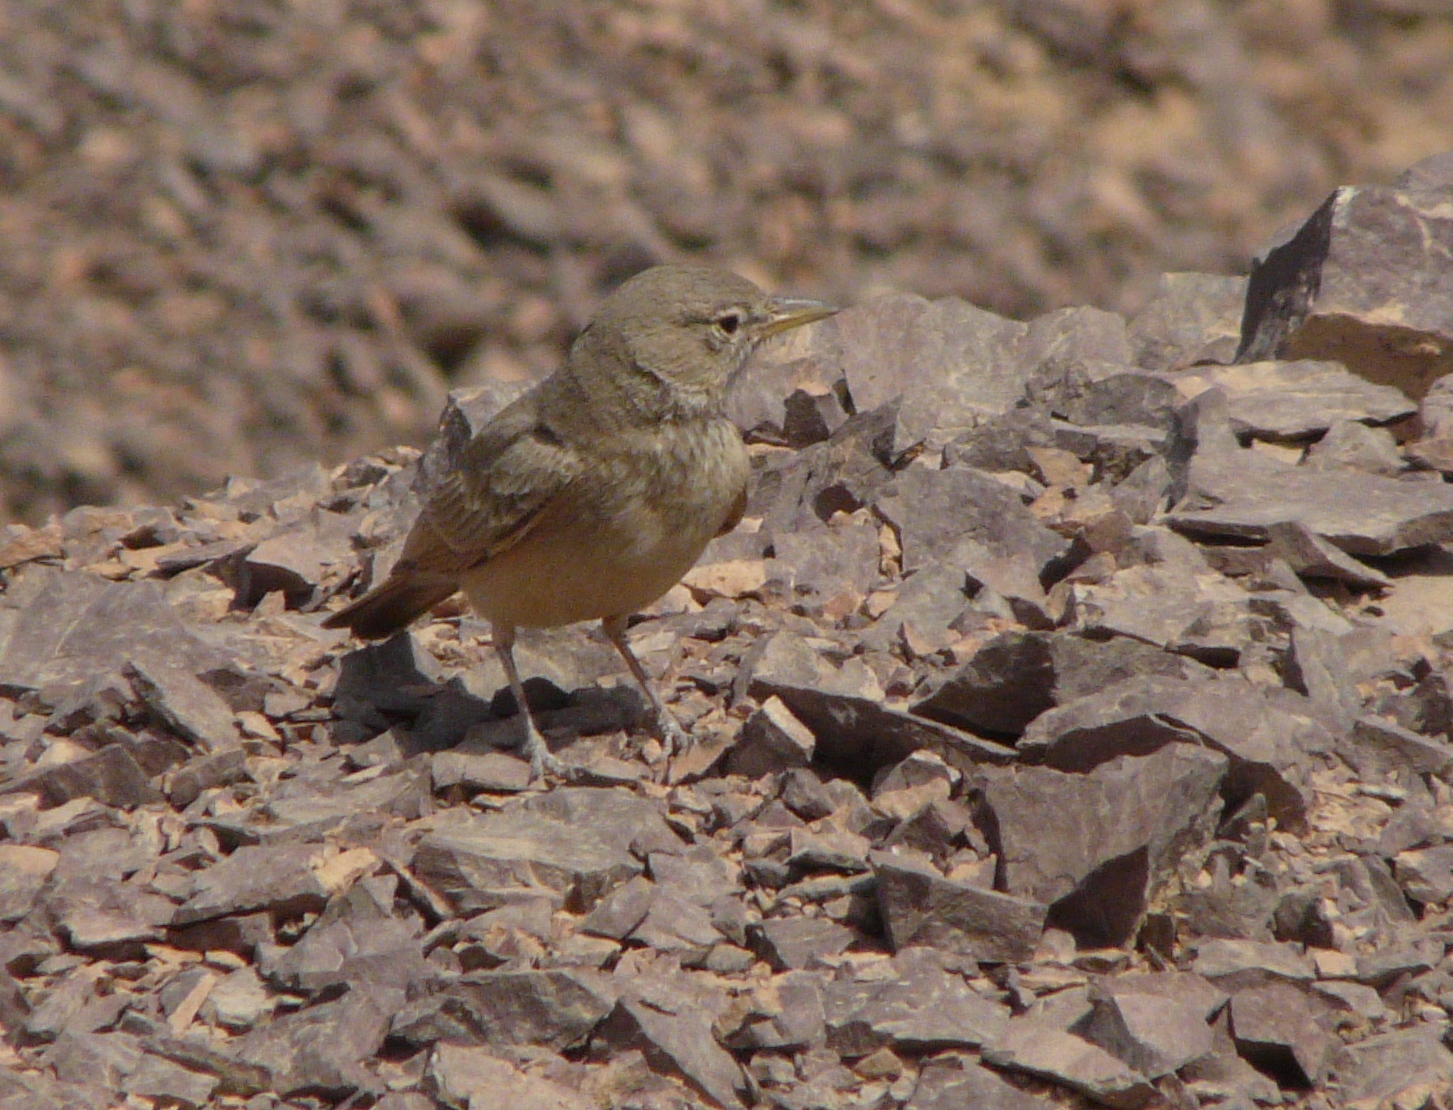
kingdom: Animalia
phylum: Chordata
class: Aves
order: Passeriformes
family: Alaudidae
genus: Ammomanes
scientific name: Ammomanes deserti
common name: Desert lark
